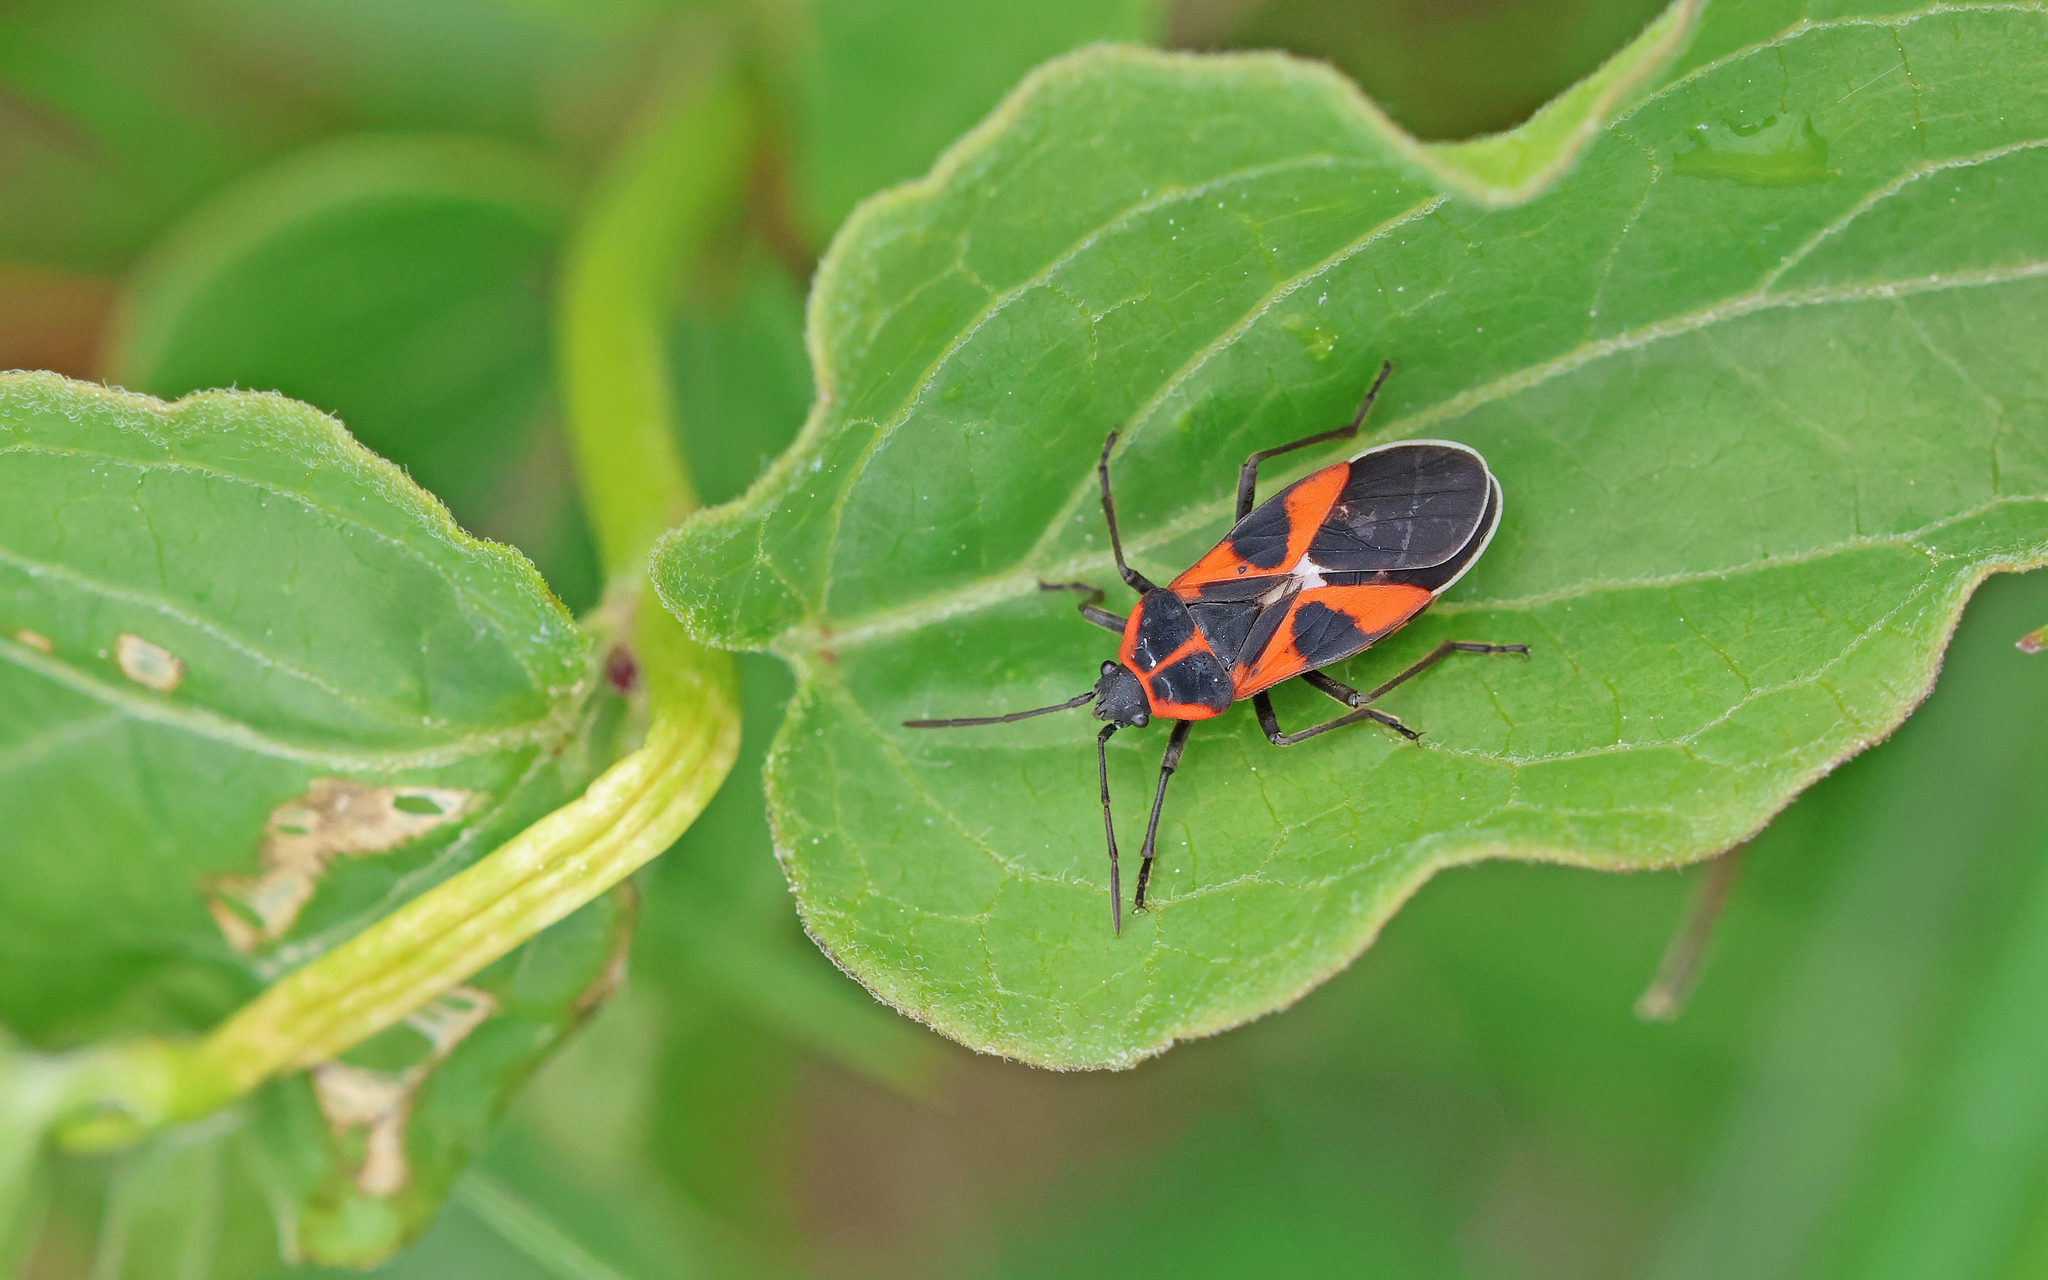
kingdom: Animalia
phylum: Arthropoda
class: Insecta
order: Hemiptera
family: Lygaeidae
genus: Tropidothorax
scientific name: Tropidothorax leucopterus
